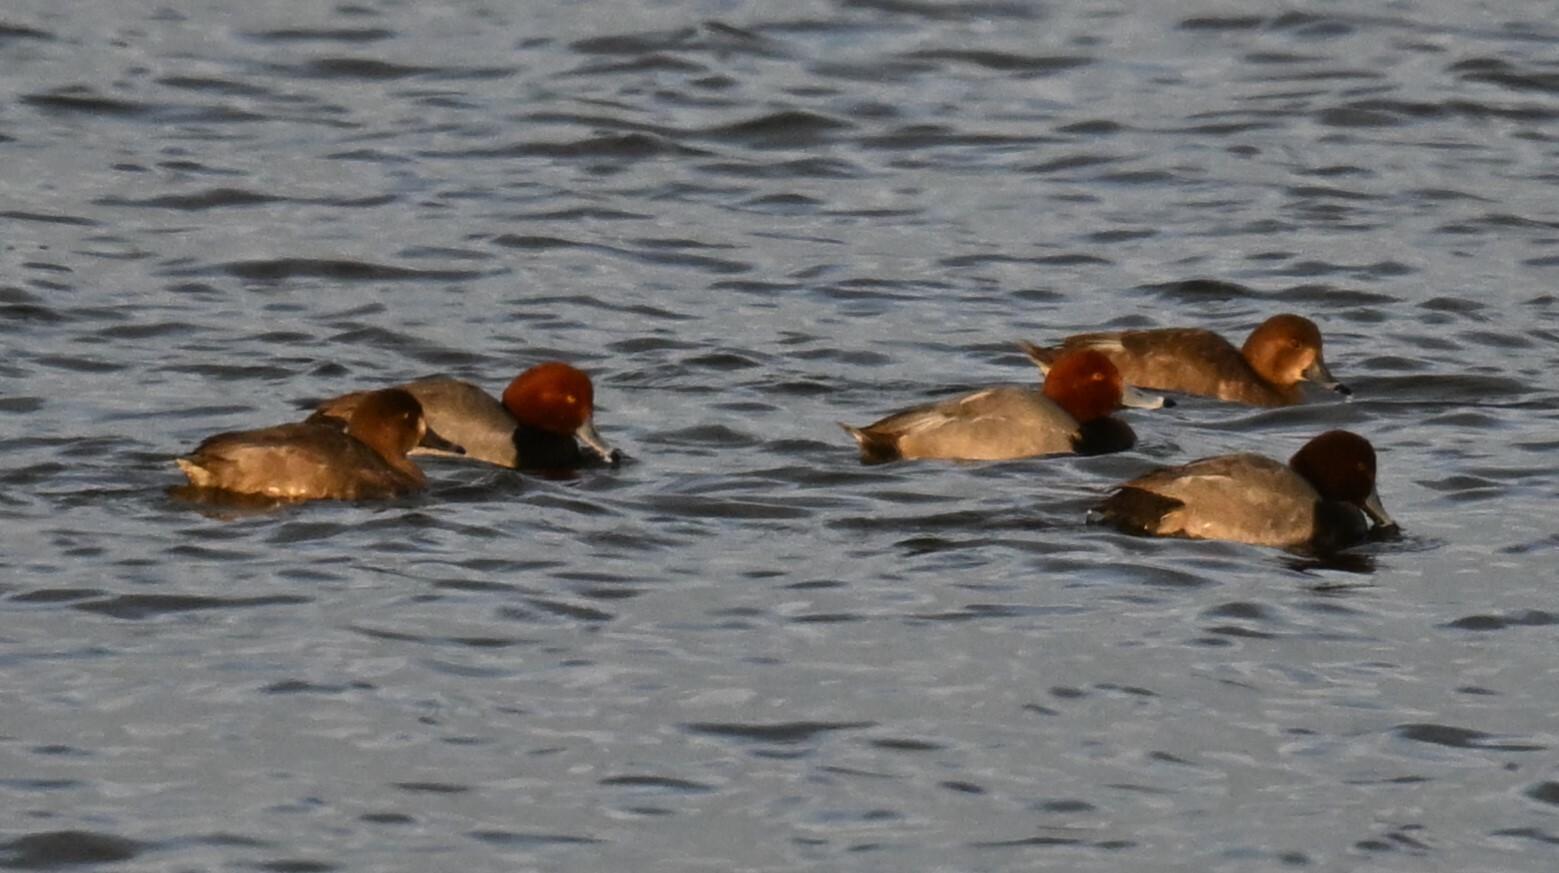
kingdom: Animalia
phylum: Chordata
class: Aves
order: Anseriformes
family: Anatidae
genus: Aythya
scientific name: Aythya americana
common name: Redhead
